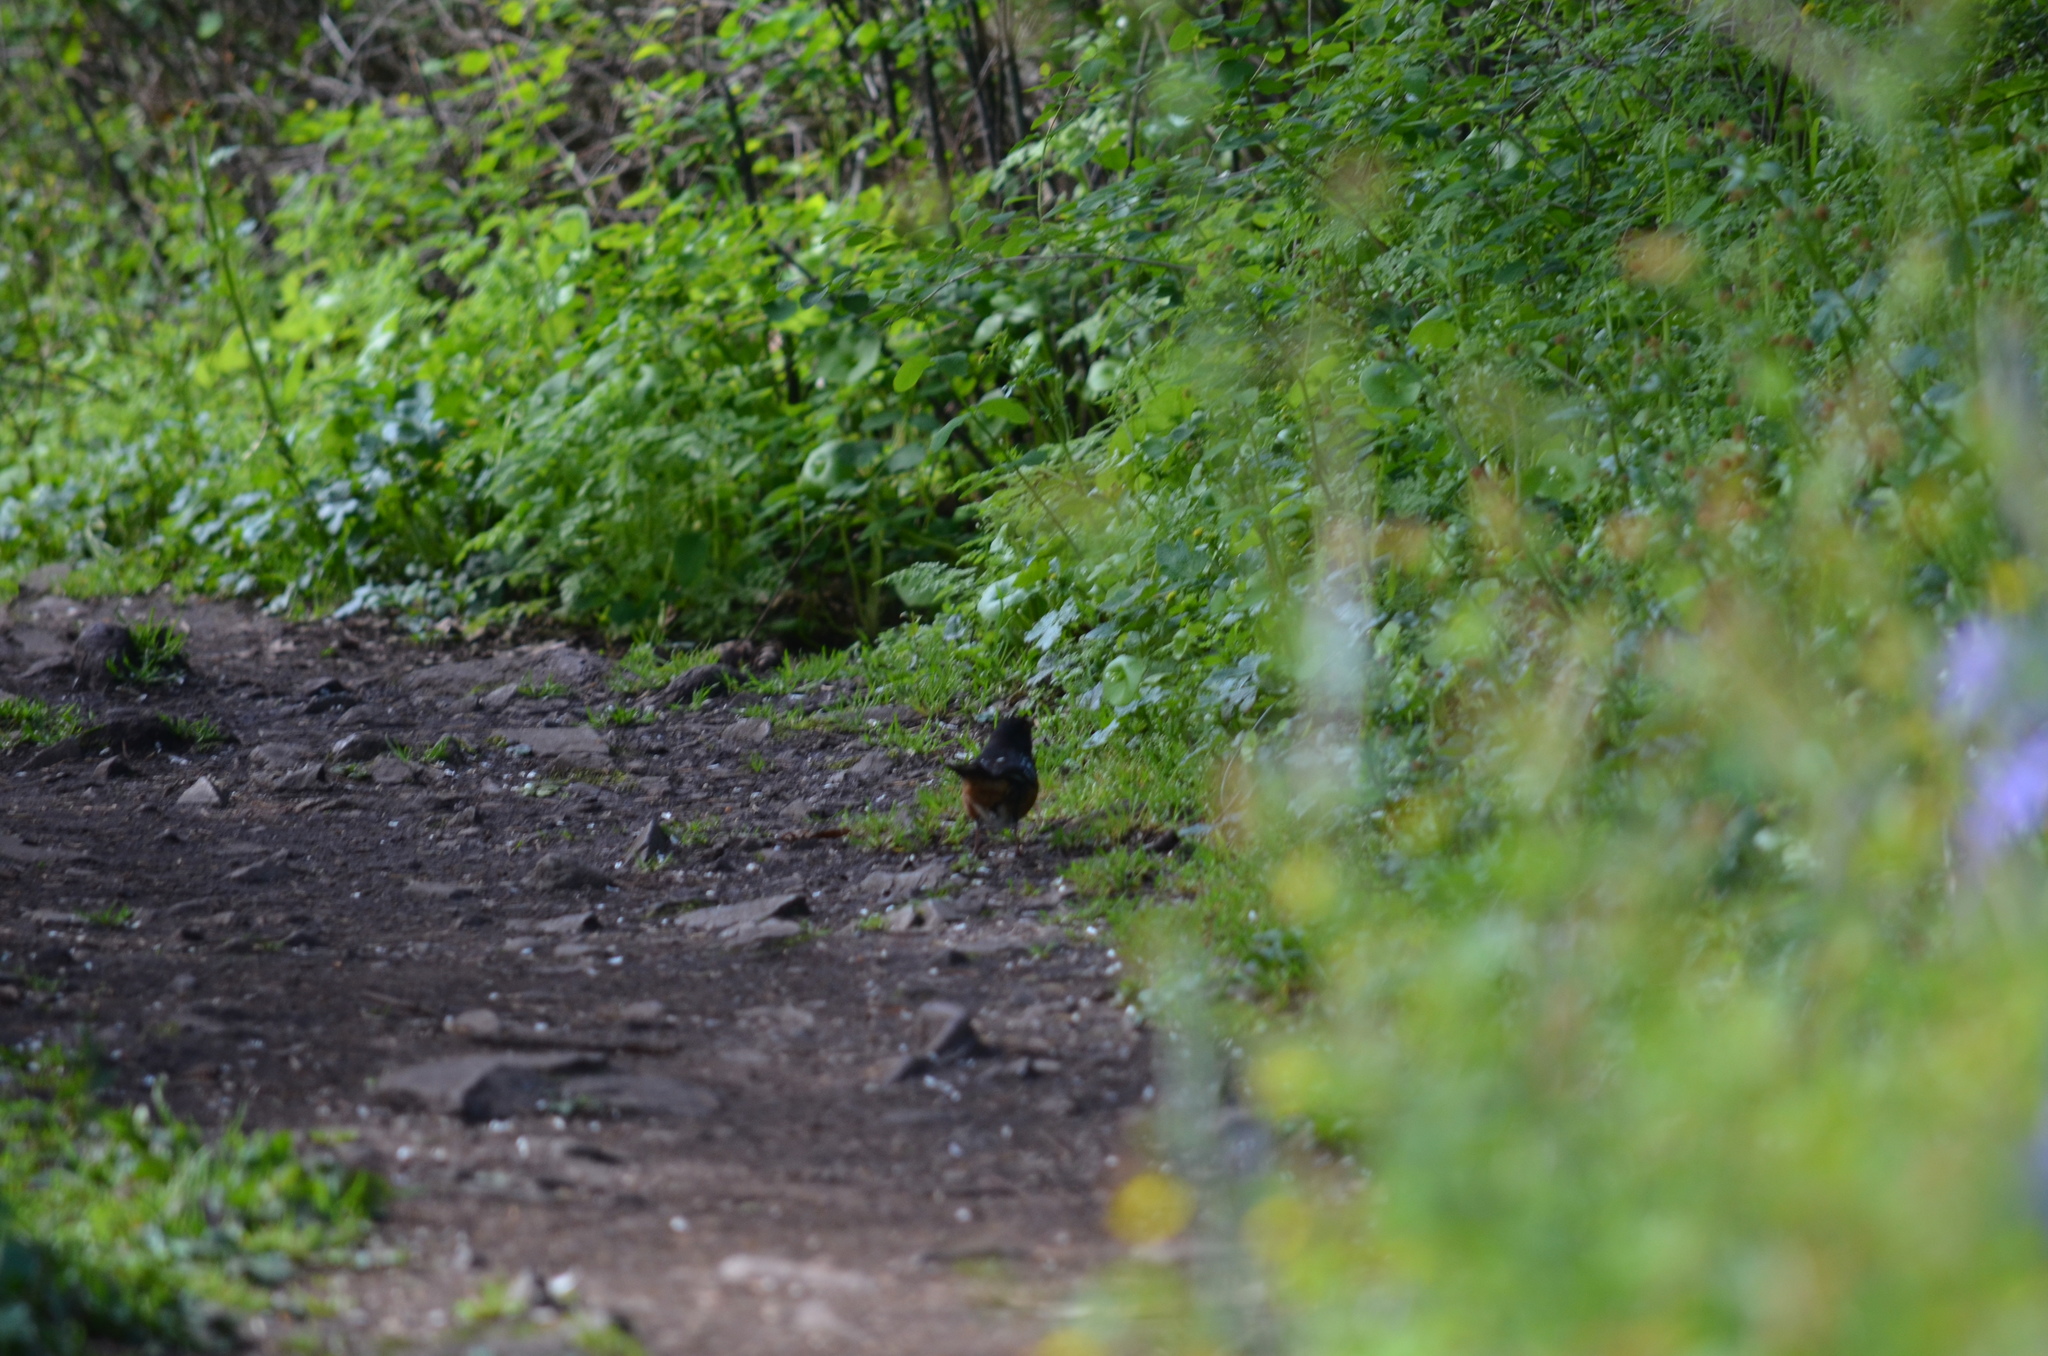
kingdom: Animalia
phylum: Chordata
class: Aves
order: Passeriformes
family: Passerellidae
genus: Pipilo
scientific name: Pipilo maculatus
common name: Spotted towhee
